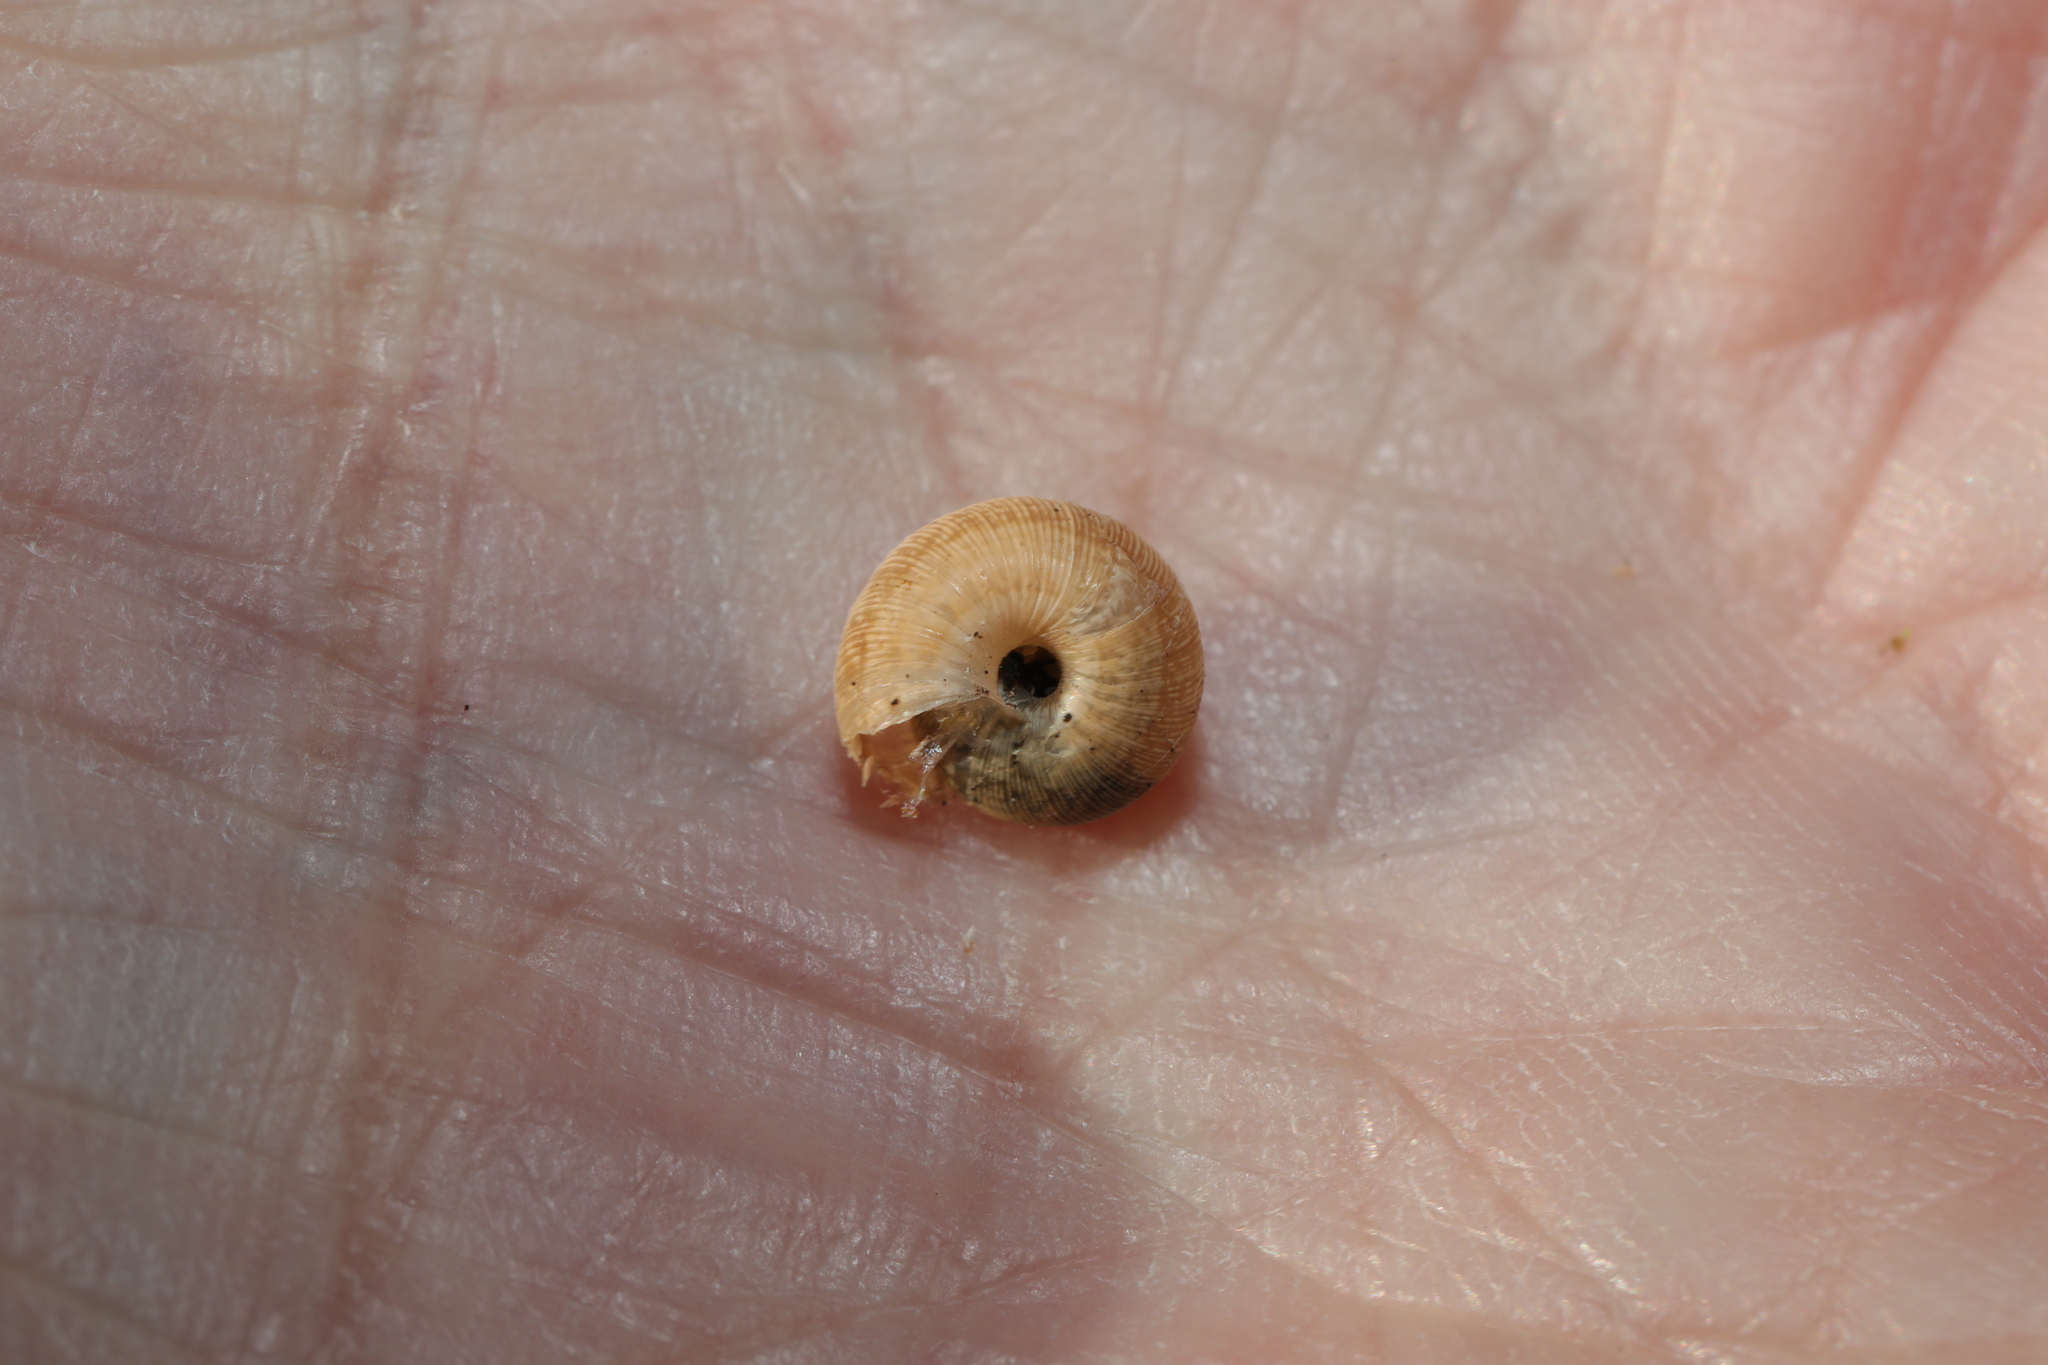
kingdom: Animalia
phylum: Mollusca
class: Gastropoda
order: Stylommatophora
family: Geomitridae
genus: Xeroplexa
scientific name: Xeroplexa intersecta
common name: Wrinkled snail
